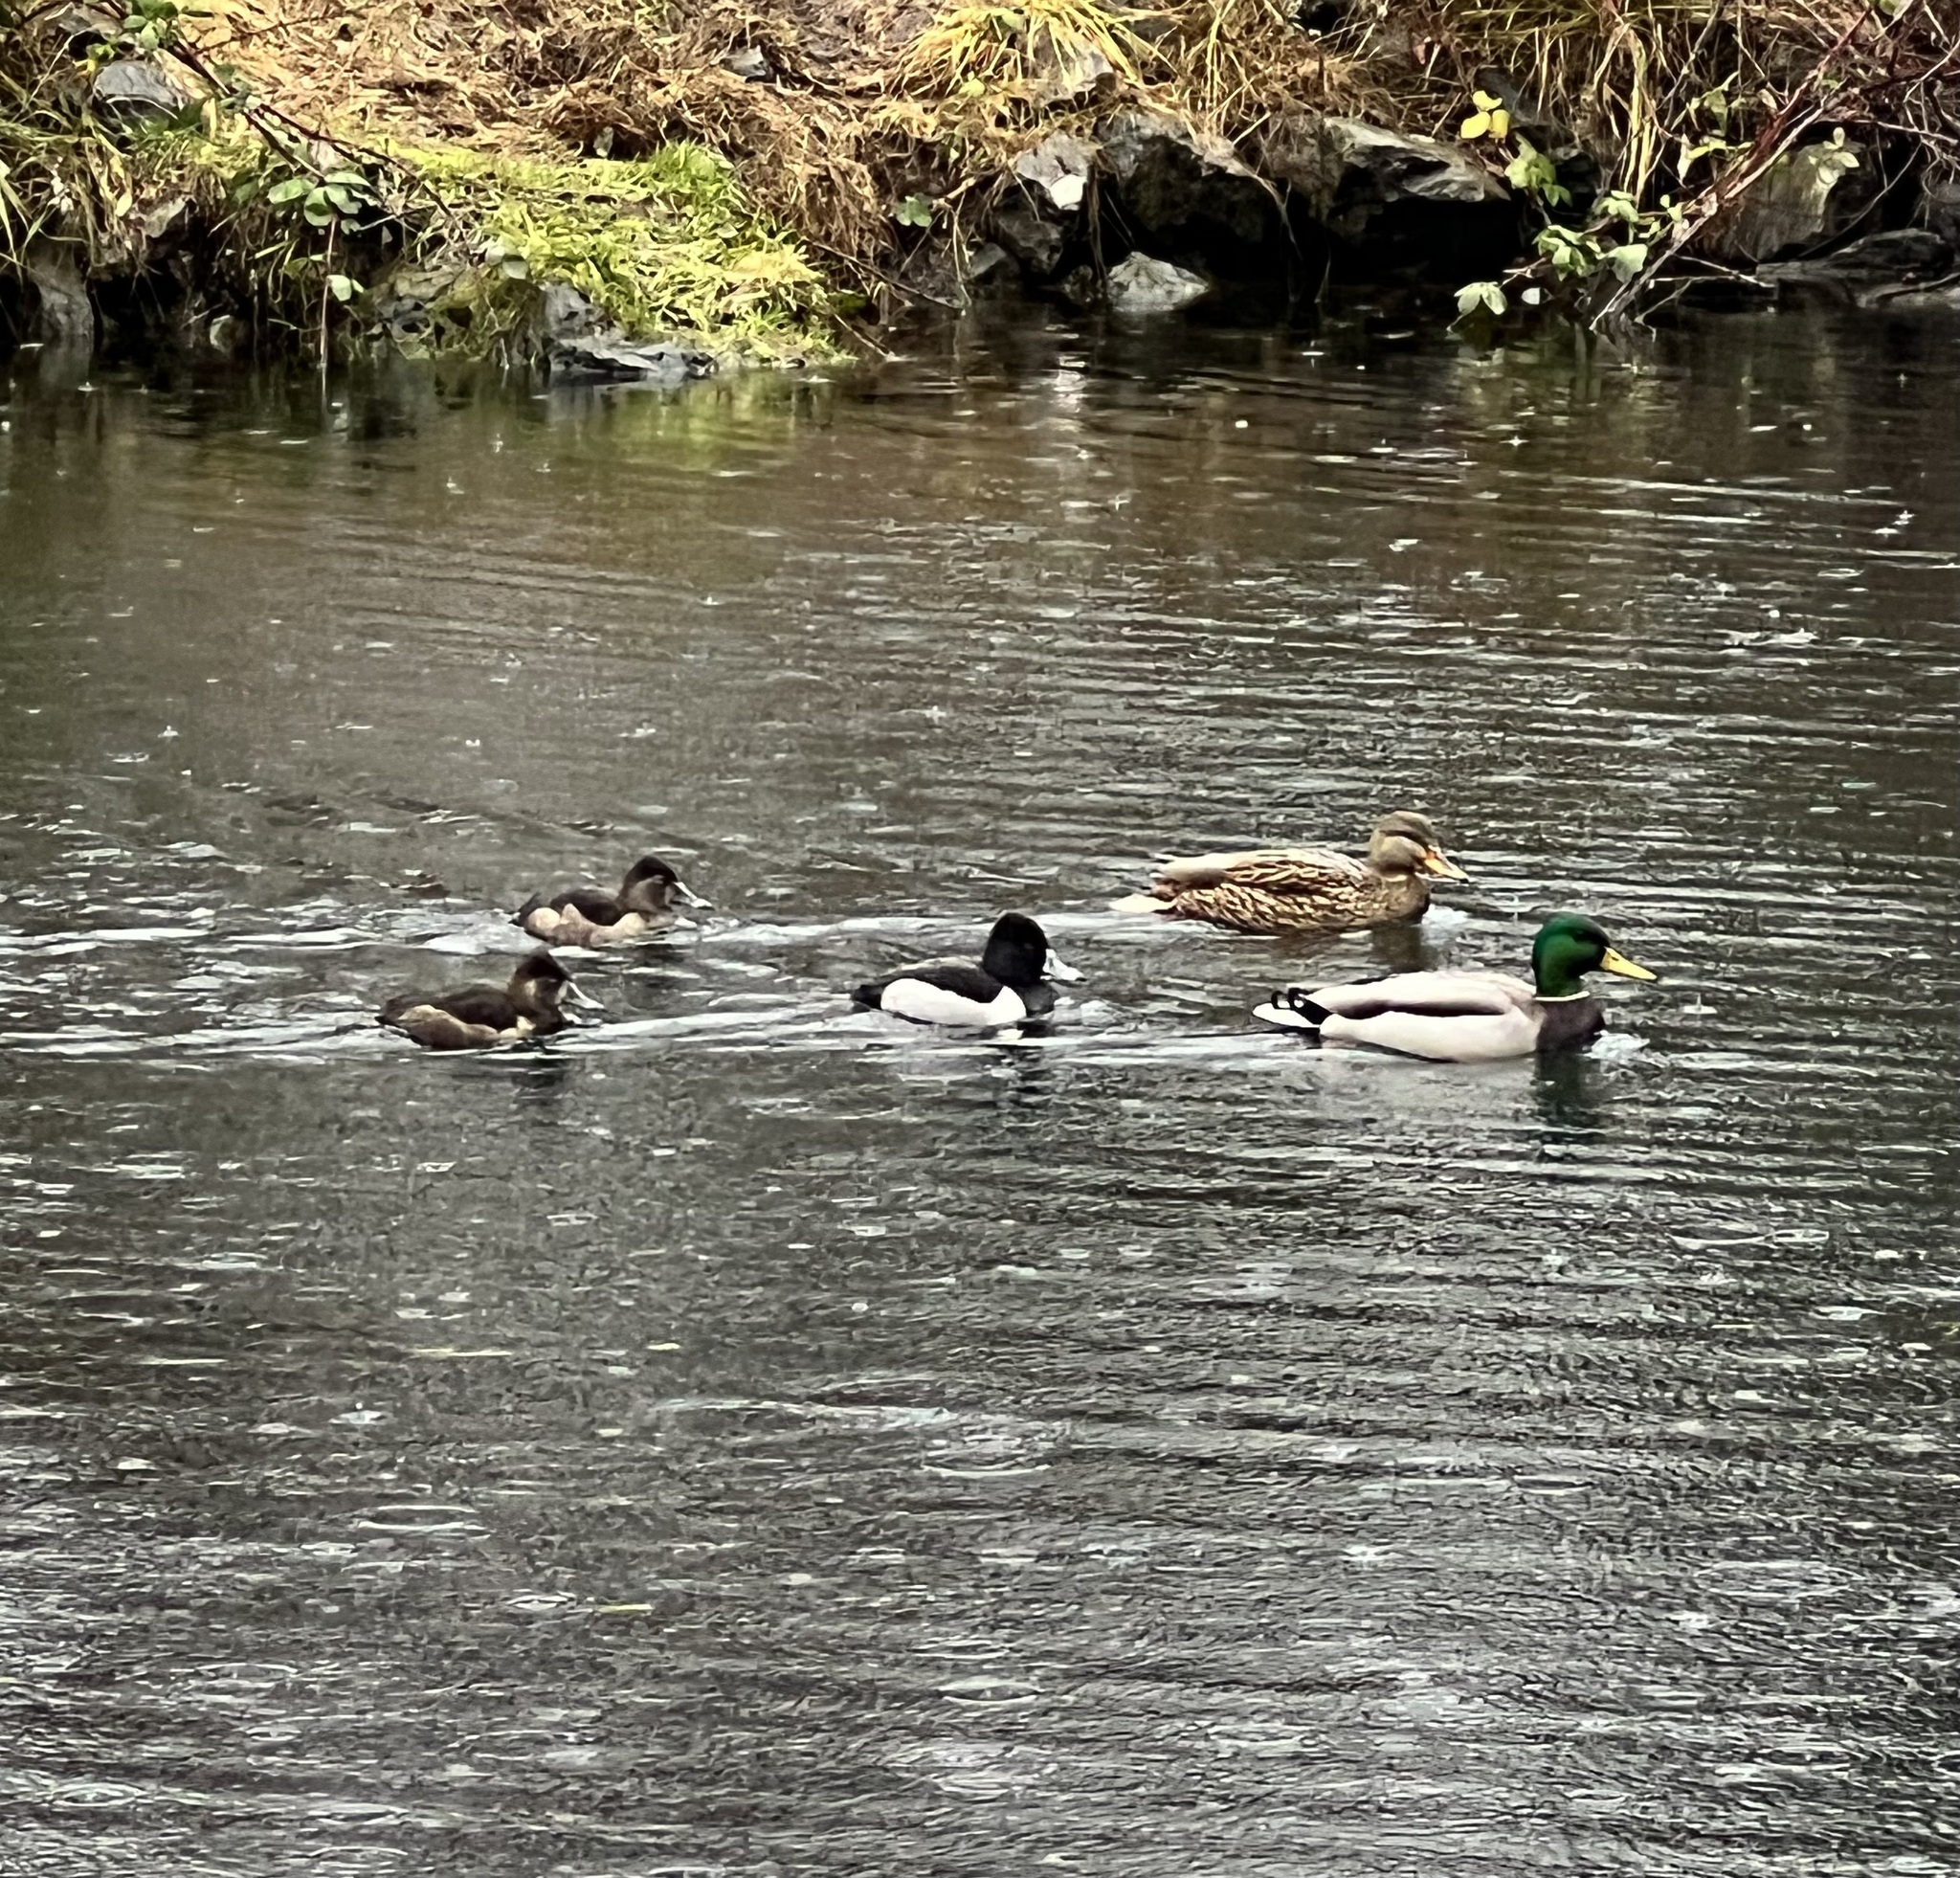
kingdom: Animalia
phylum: Chordata
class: Aves
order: Anseriformes
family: Anatidae
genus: Aythya
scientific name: Aythya collaris
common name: Ring-necked duck
